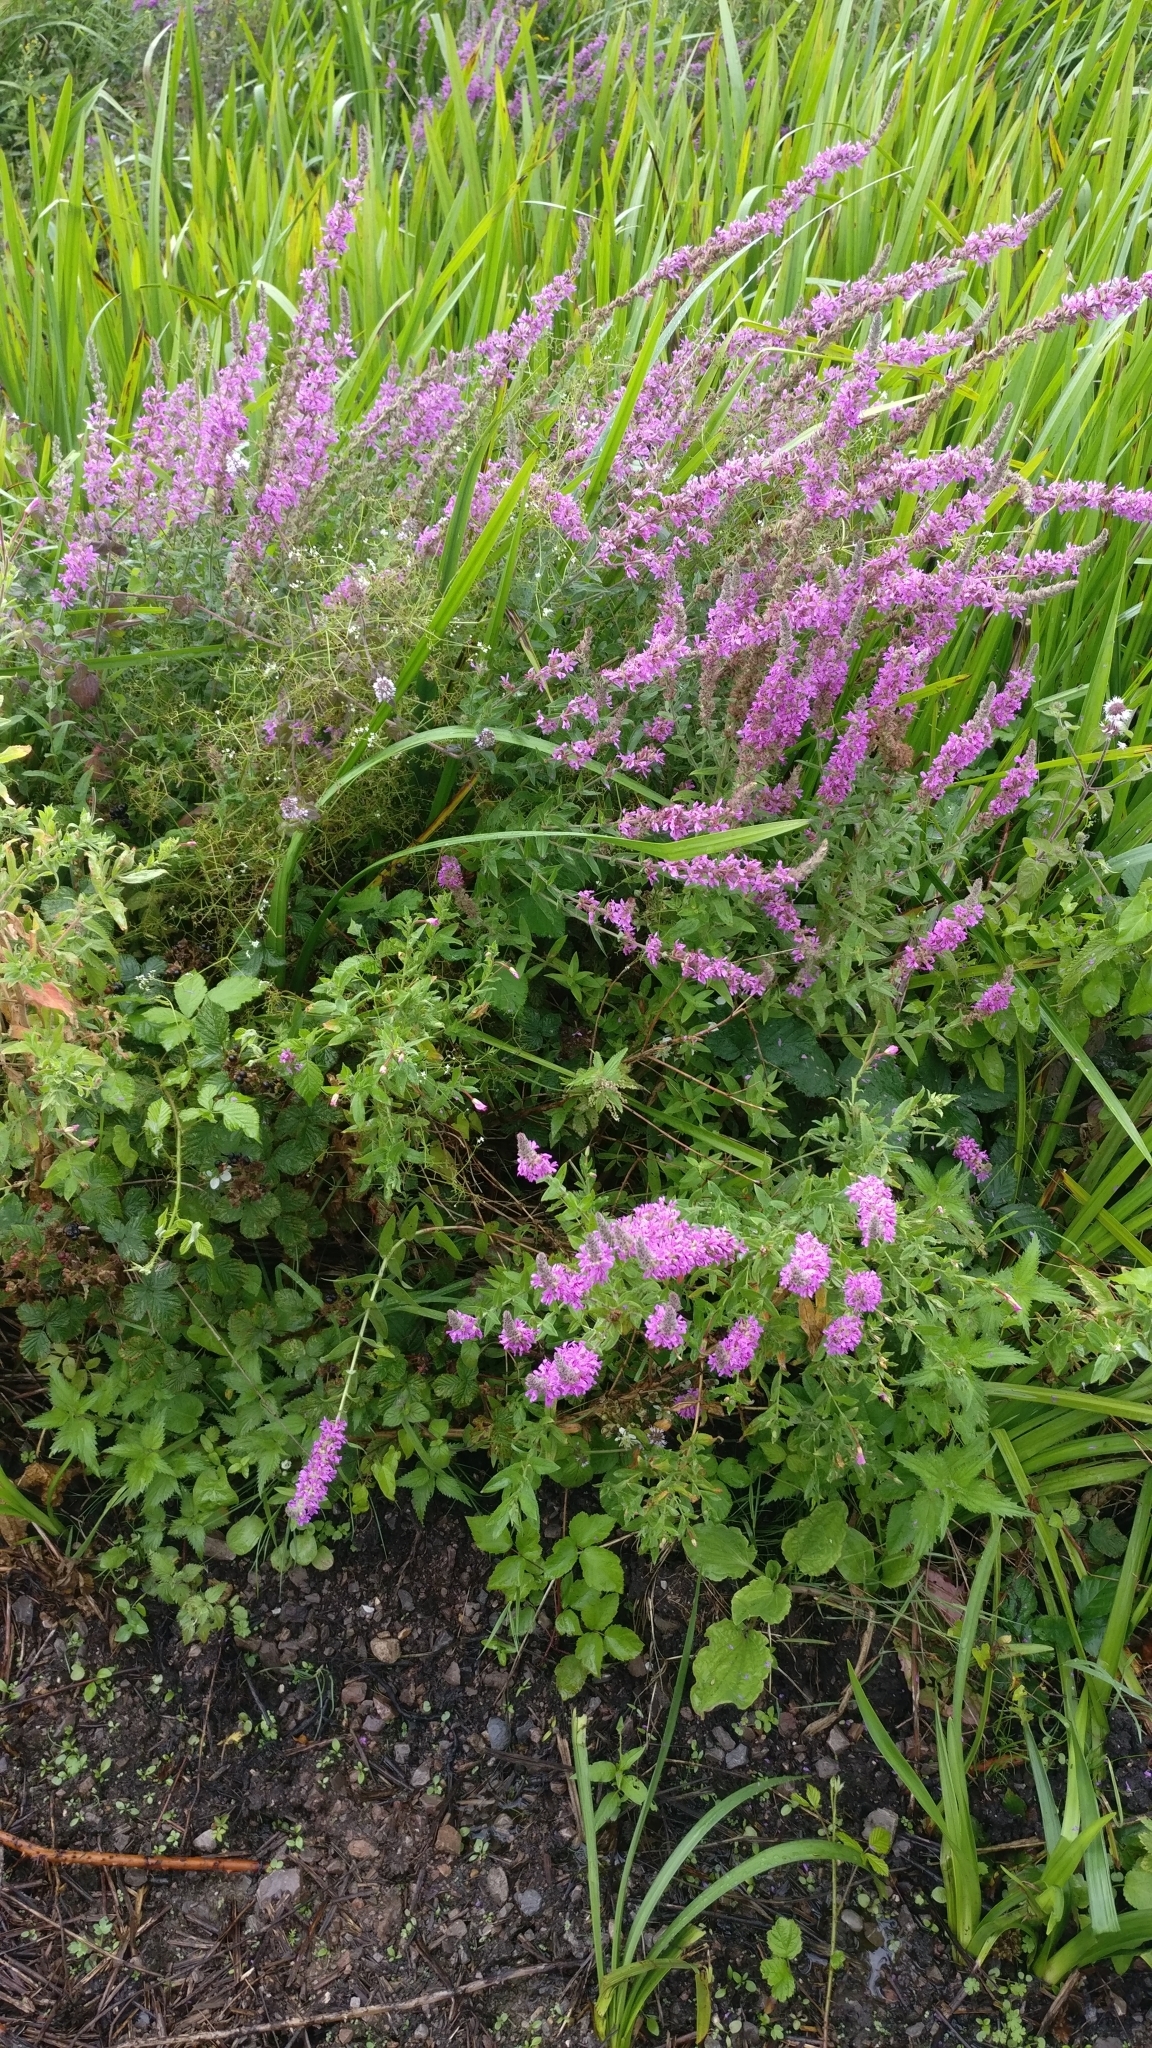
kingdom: Plantae
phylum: Tracheophyta
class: Magnoliopsida
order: Myrtales
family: Lythraceae
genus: Lythrum
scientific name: Lythrum salicaria
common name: Purple loosestrife
